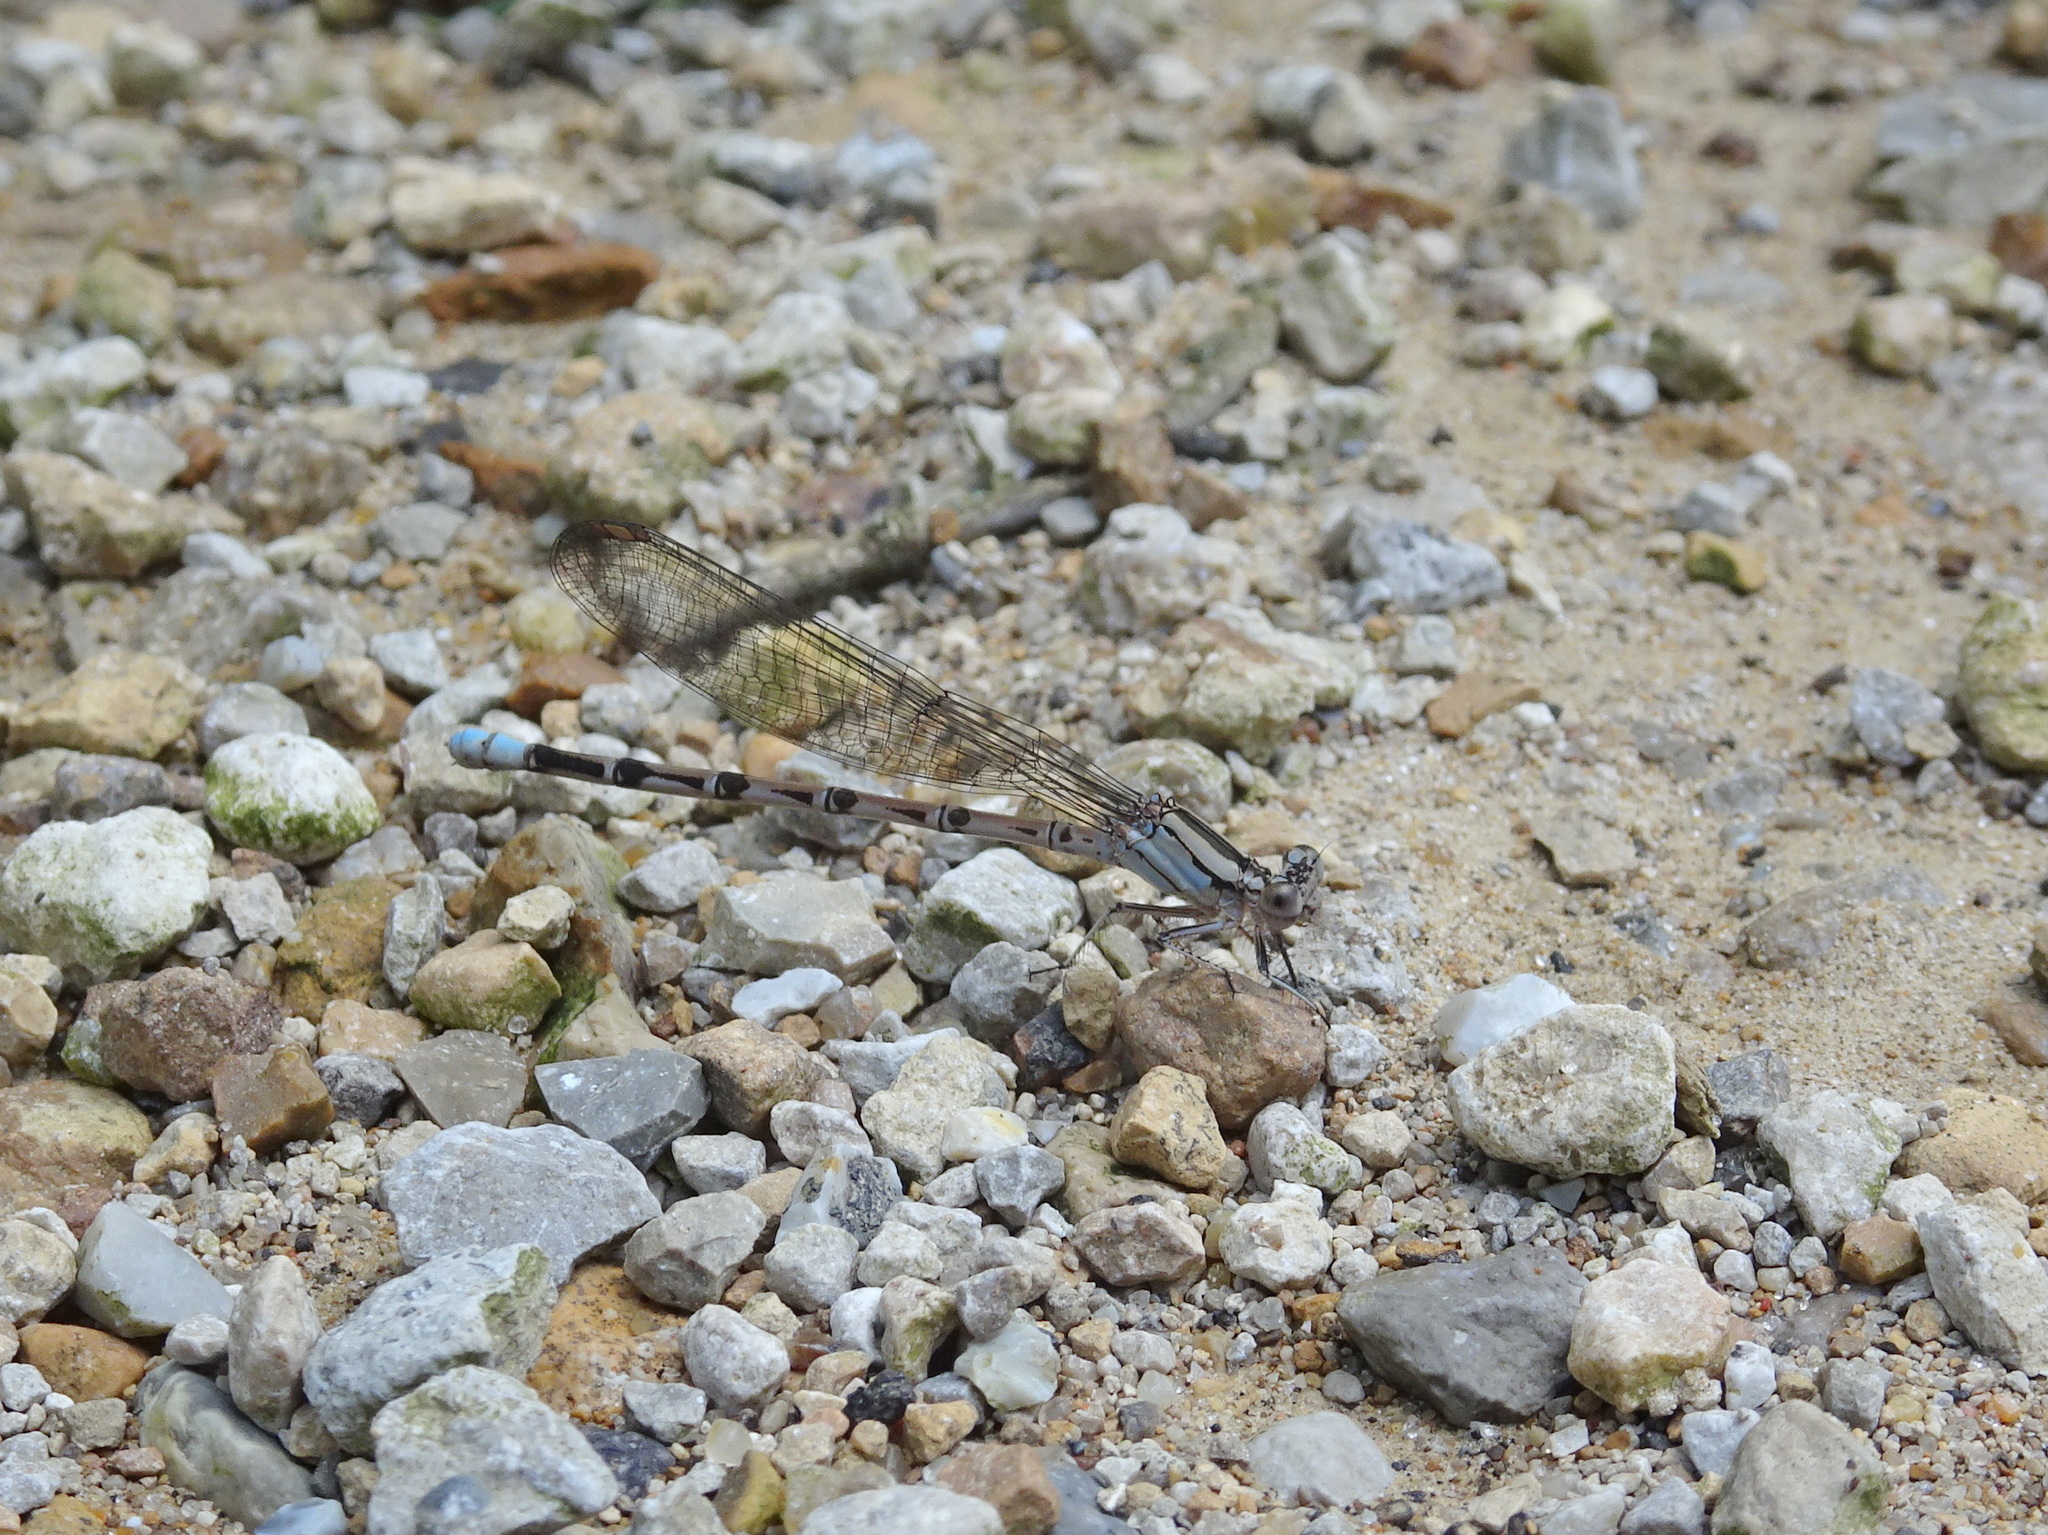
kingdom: Animalia
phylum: Arthropoda
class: Insecta
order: Odonata
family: Coenagrionidae
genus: Argia
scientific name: Argia funebris
